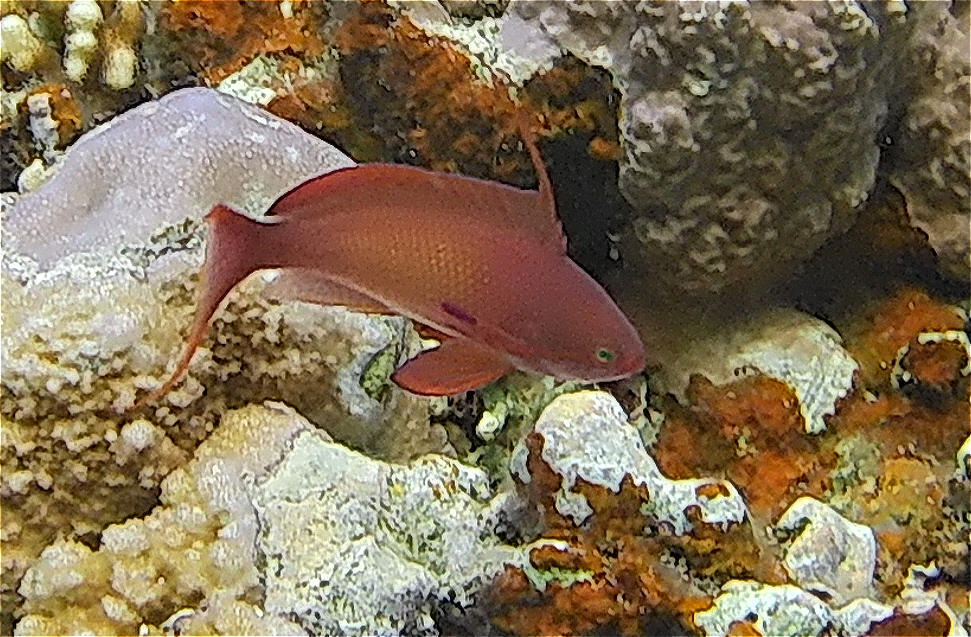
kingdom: Animalia
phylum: Chordata
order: Perciformes
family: Serranidae
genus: Pseudanthias
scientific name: Pseudanthias squamipinnis
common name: Scalefin anthias
